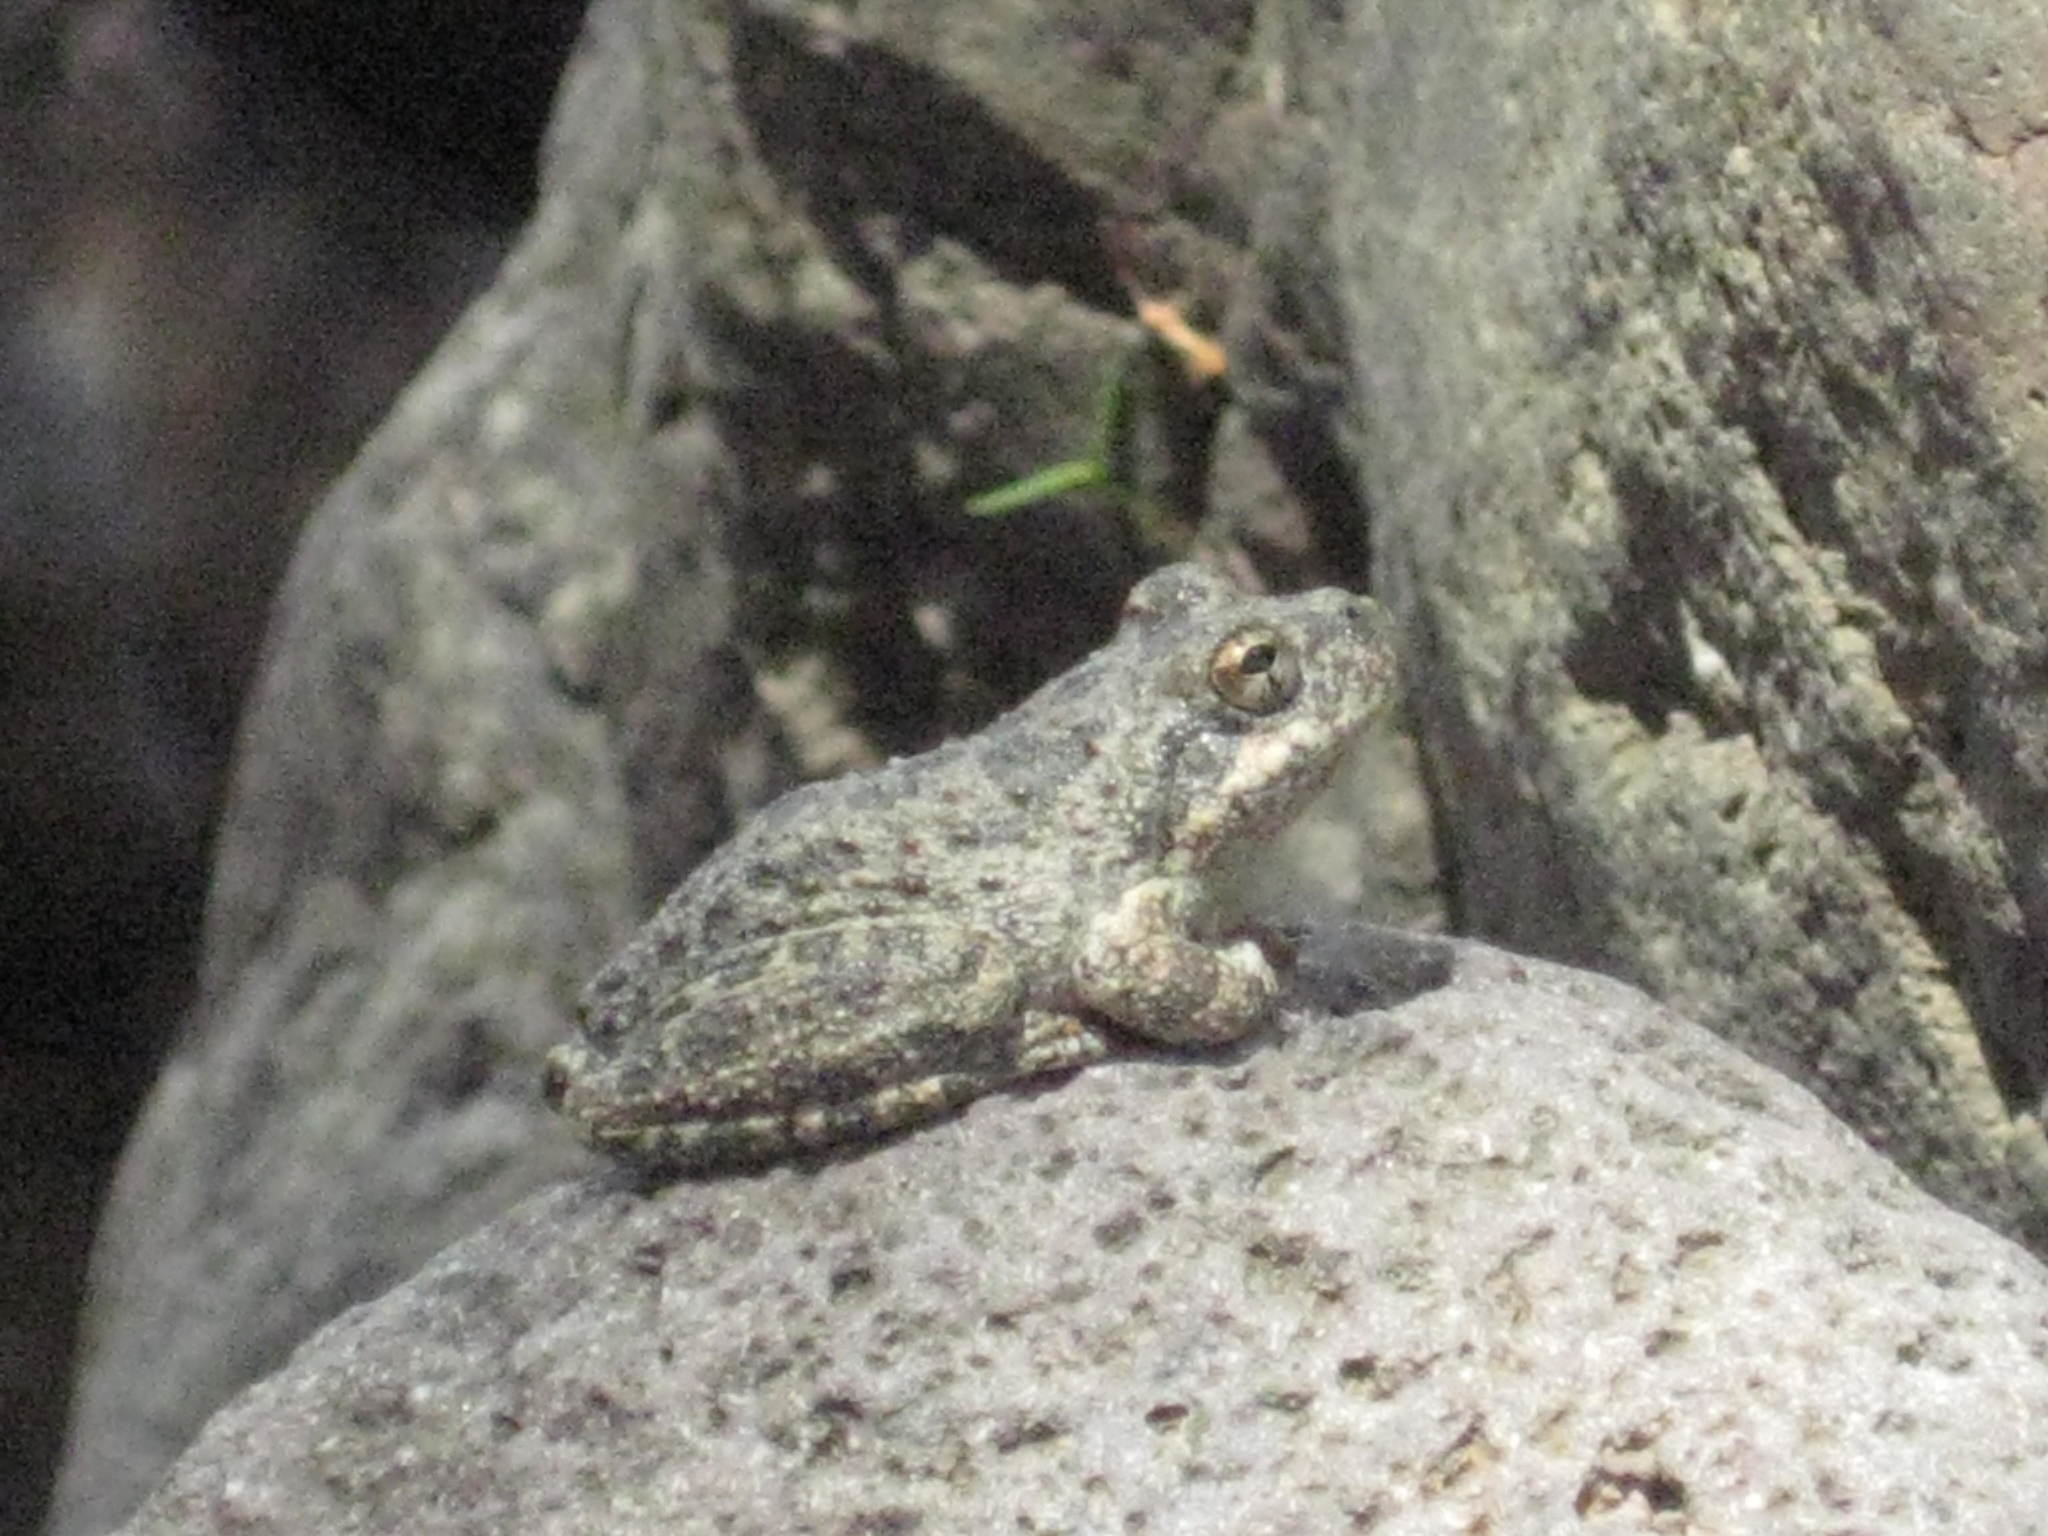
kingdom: Animalia
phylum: Chordata
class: Amphibia
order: Anura
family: Hylidae
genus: Pseudacris
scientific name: Pseudacris cadaverina
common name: California chorus frog
